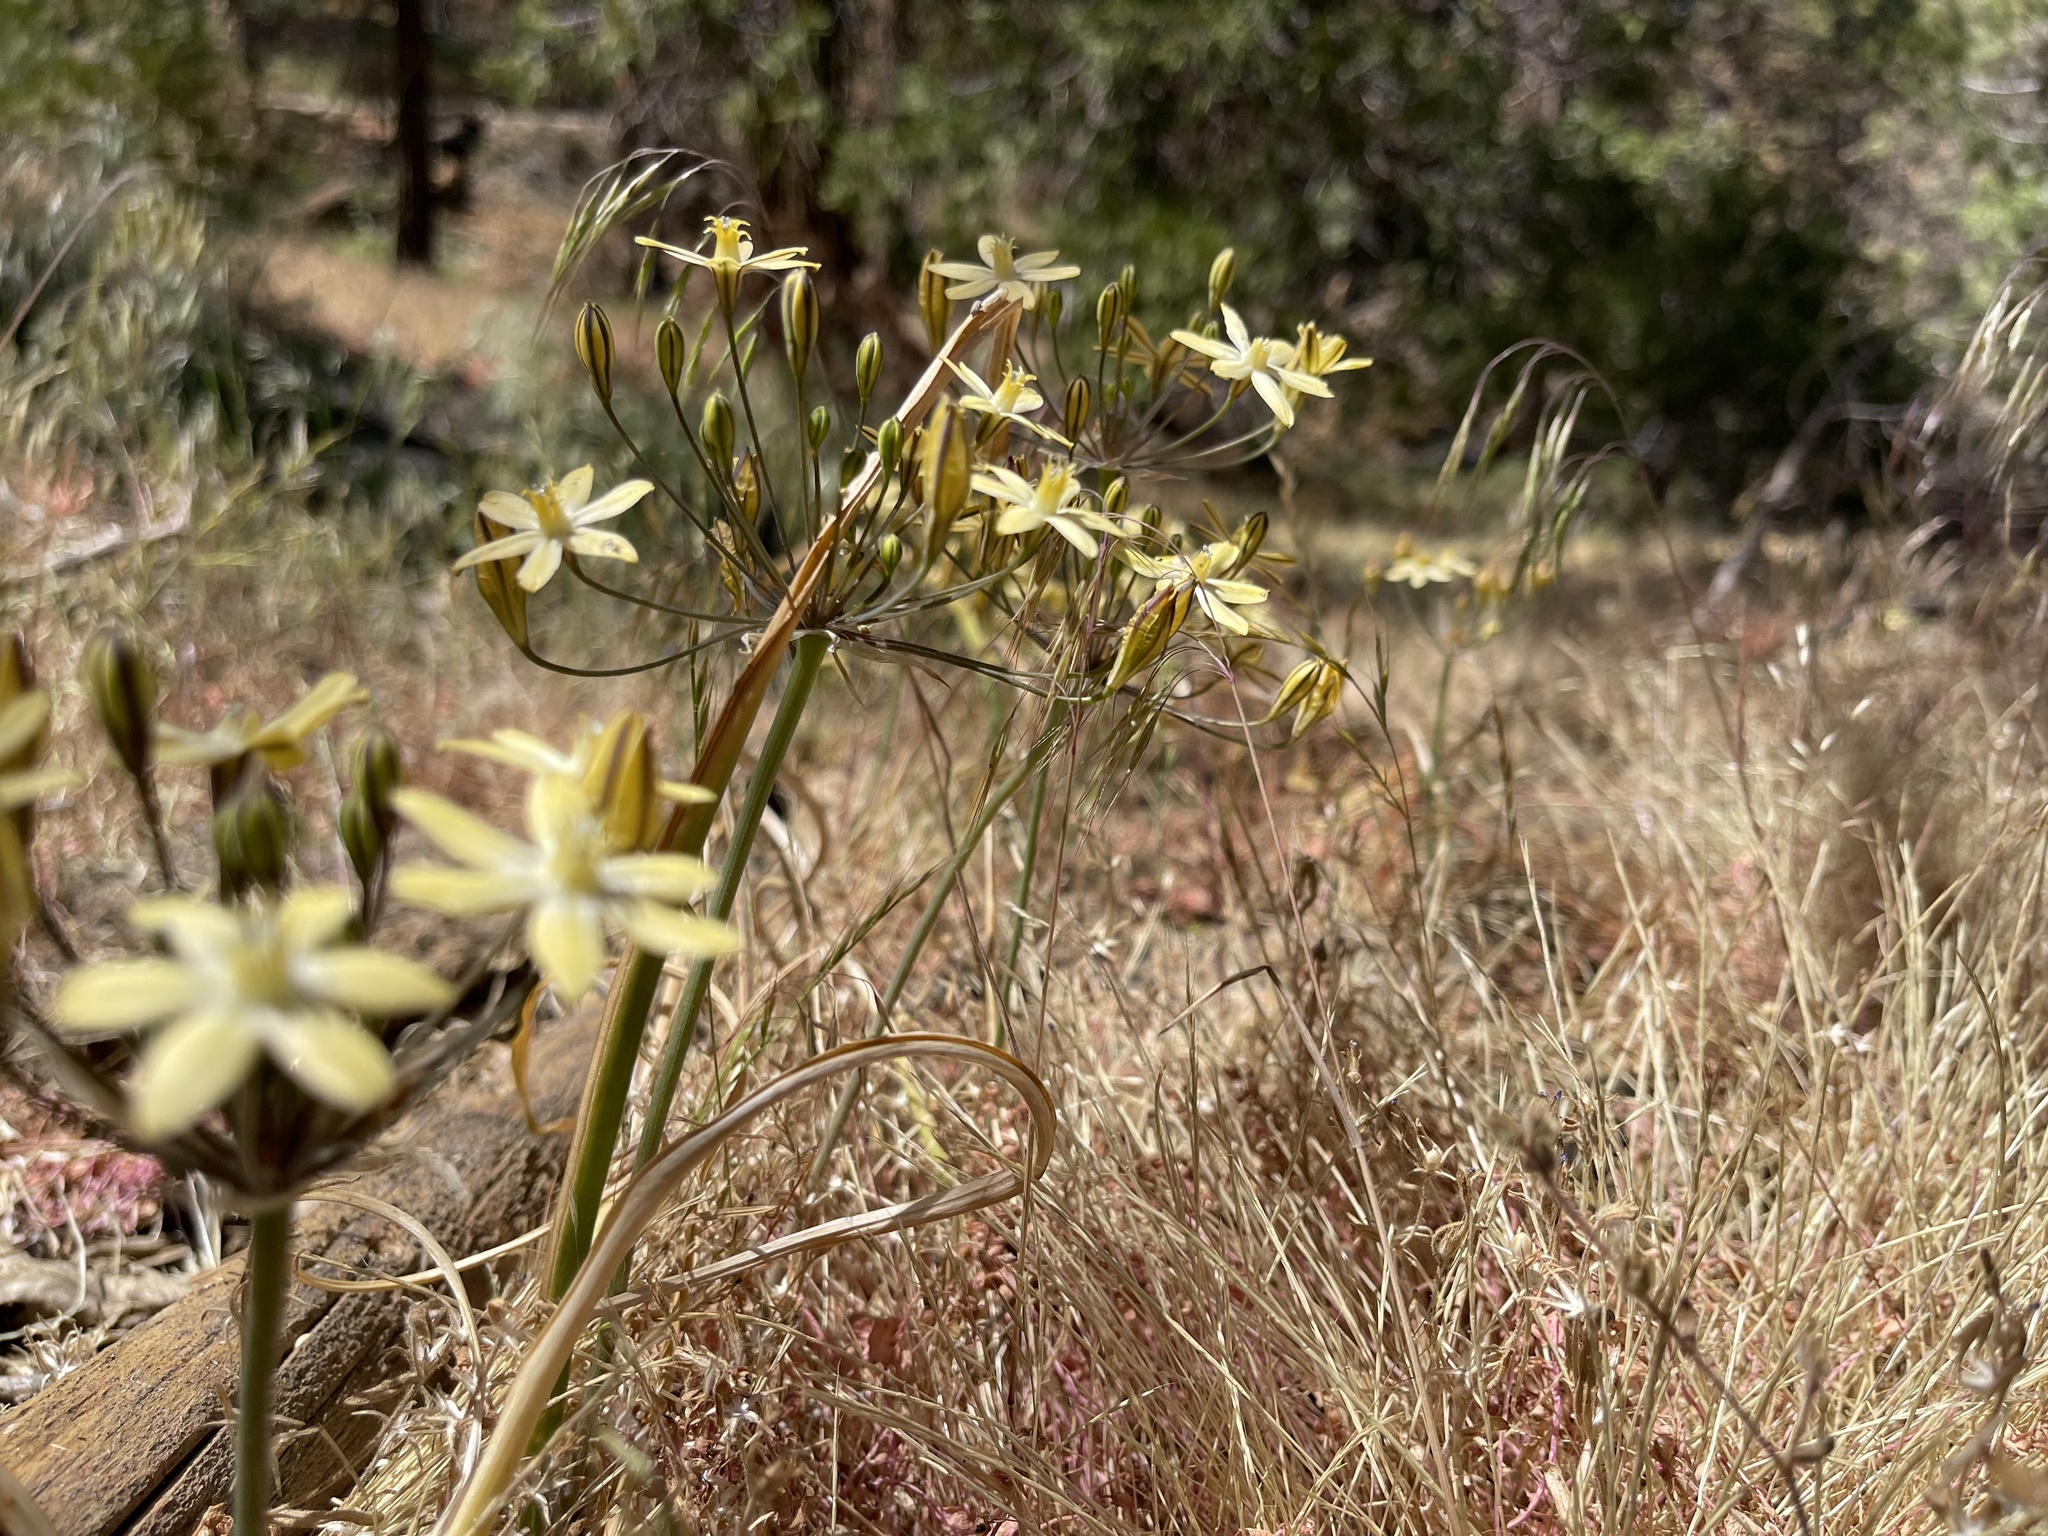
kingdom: Plantae
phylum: Tracheophyta
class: Liliopsida
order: Asparagales
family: Asparagaceae
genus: Triteleia
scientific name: Triteleia ixioides
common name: Yellow-brodiaea
